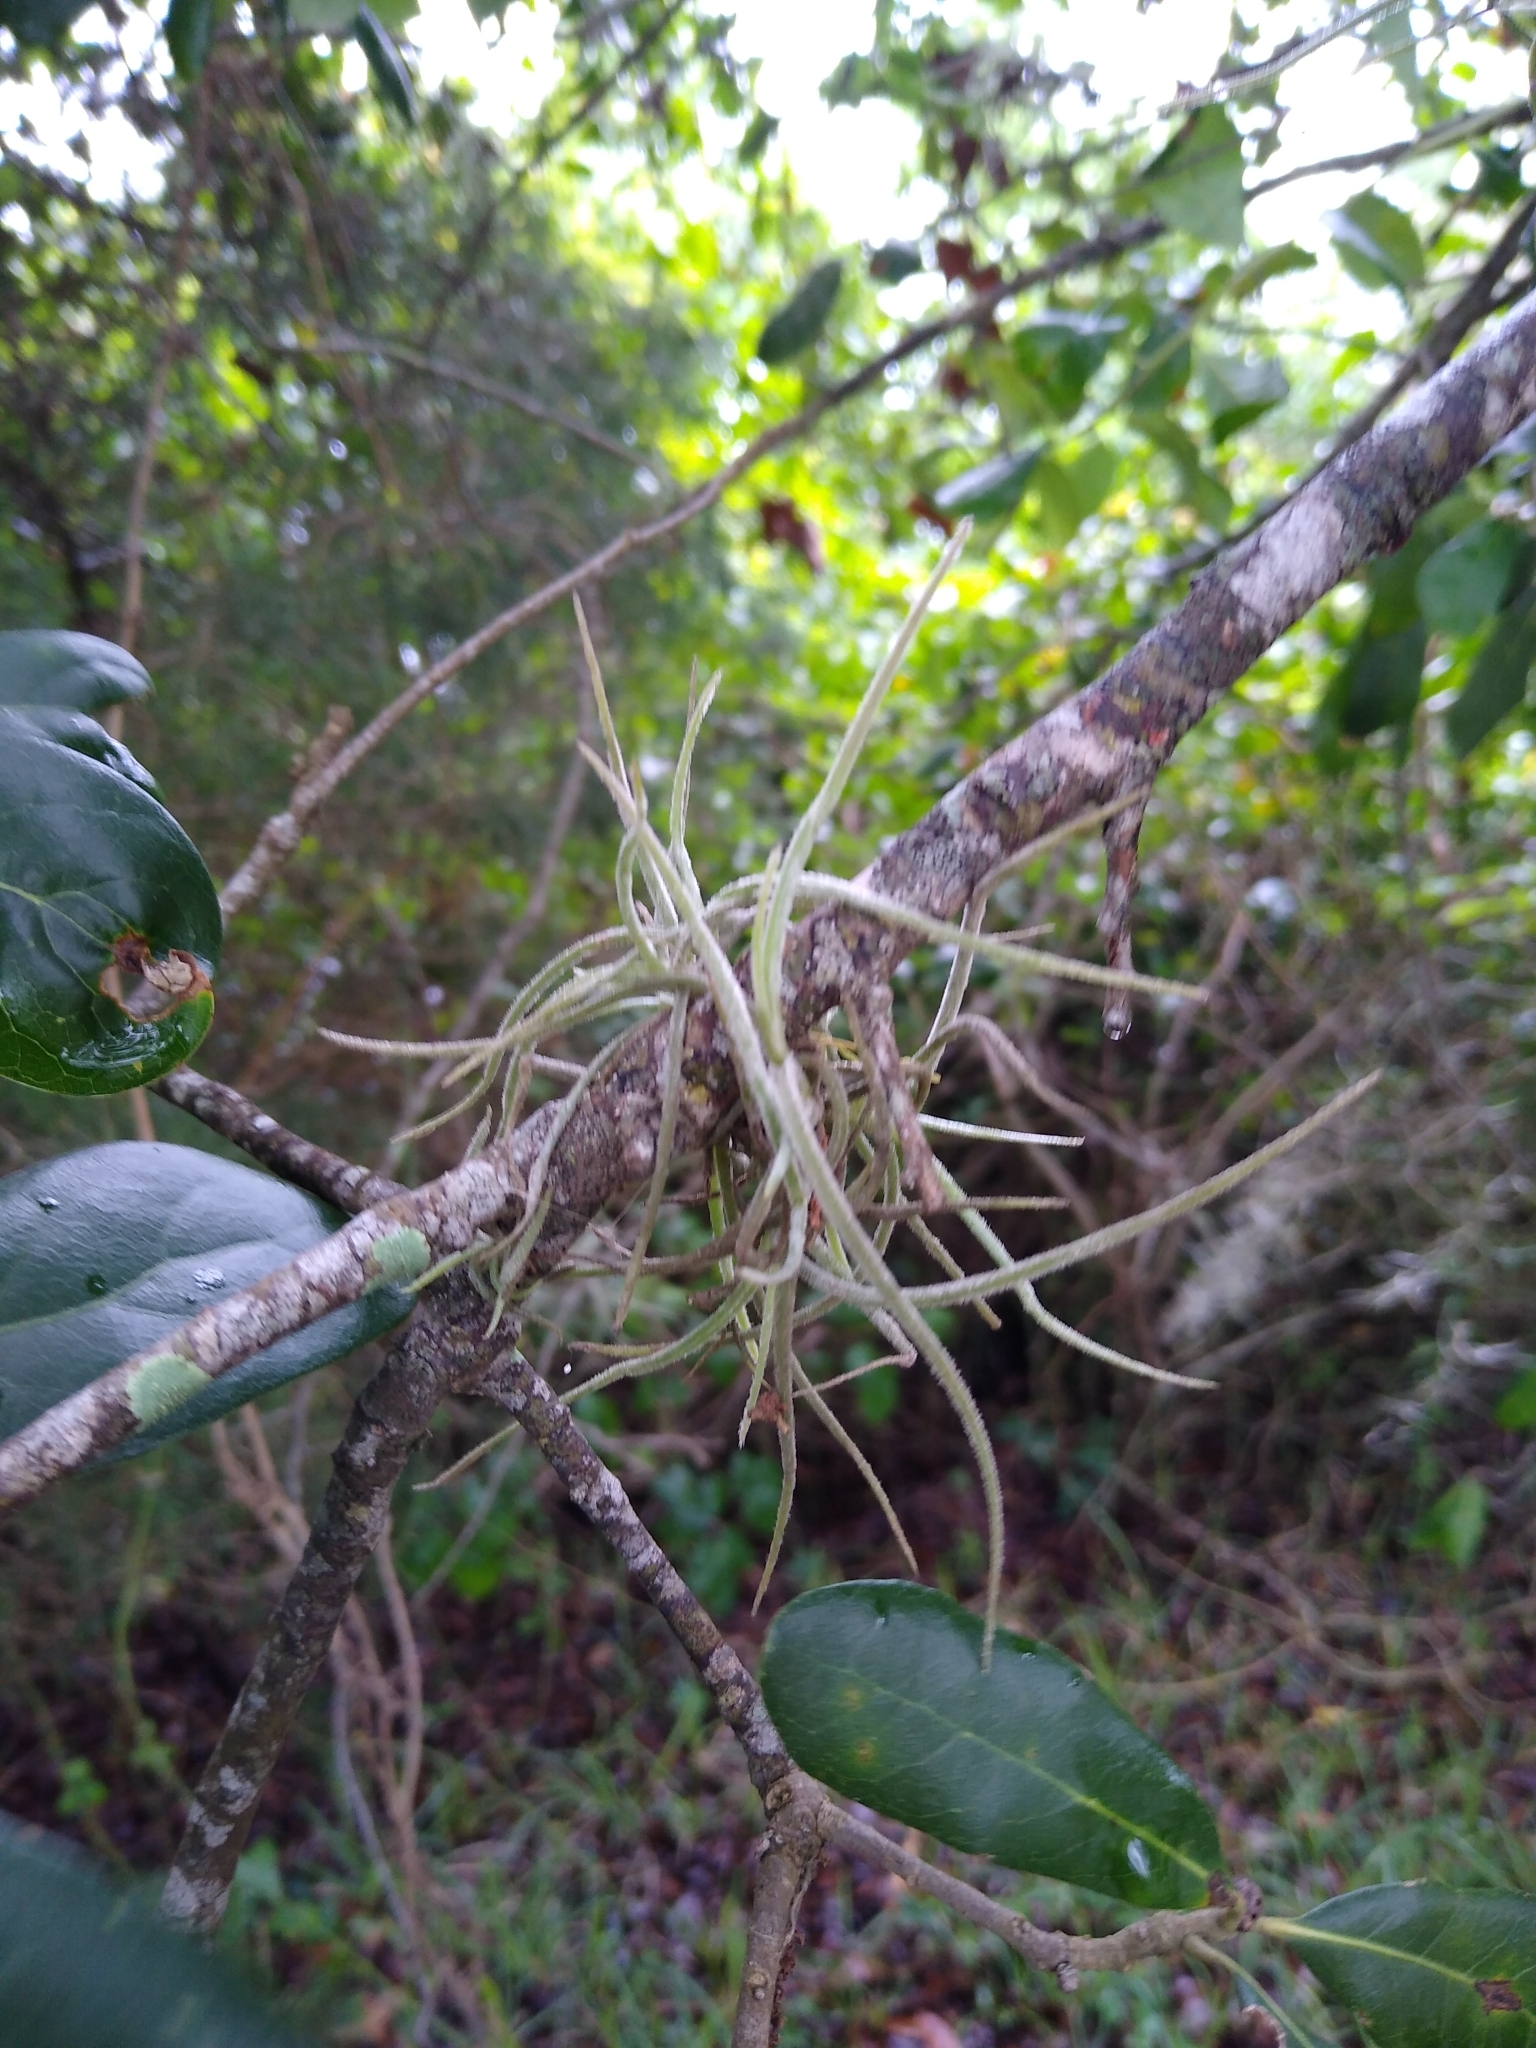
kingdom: Plantae
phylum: Tracheophyta
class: Liliopsida
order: Poales
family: Bromeliaceae
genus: Tillandsia
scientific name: Tillandsia recurvata
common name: Small ballmoss
